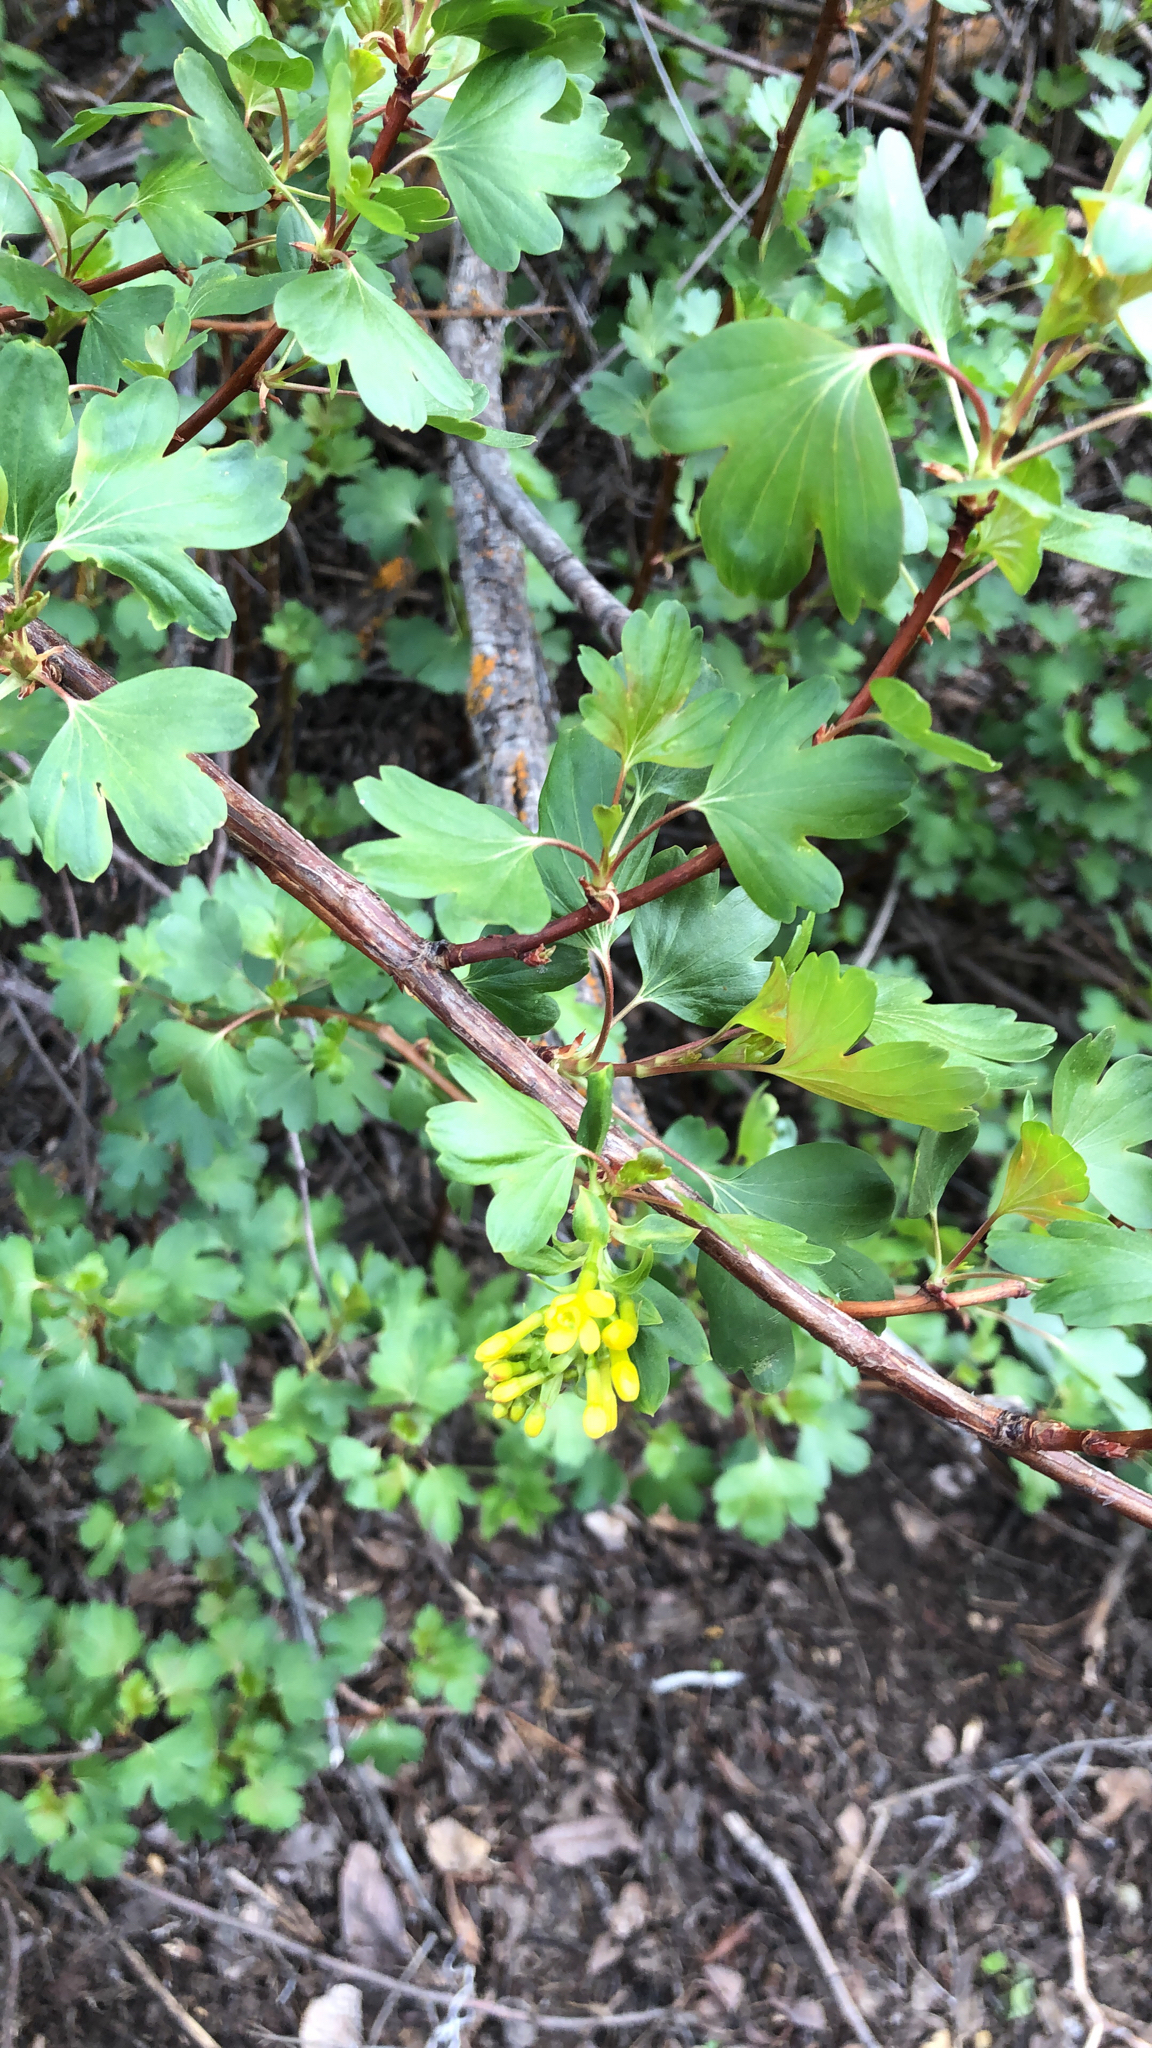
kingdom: Plantae
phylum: Tracheophyta
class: Magnoliopsida
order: Saxifragales
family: Grossulariaceae
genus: Ribes
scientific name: Ribes aureum
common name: Golden currant
